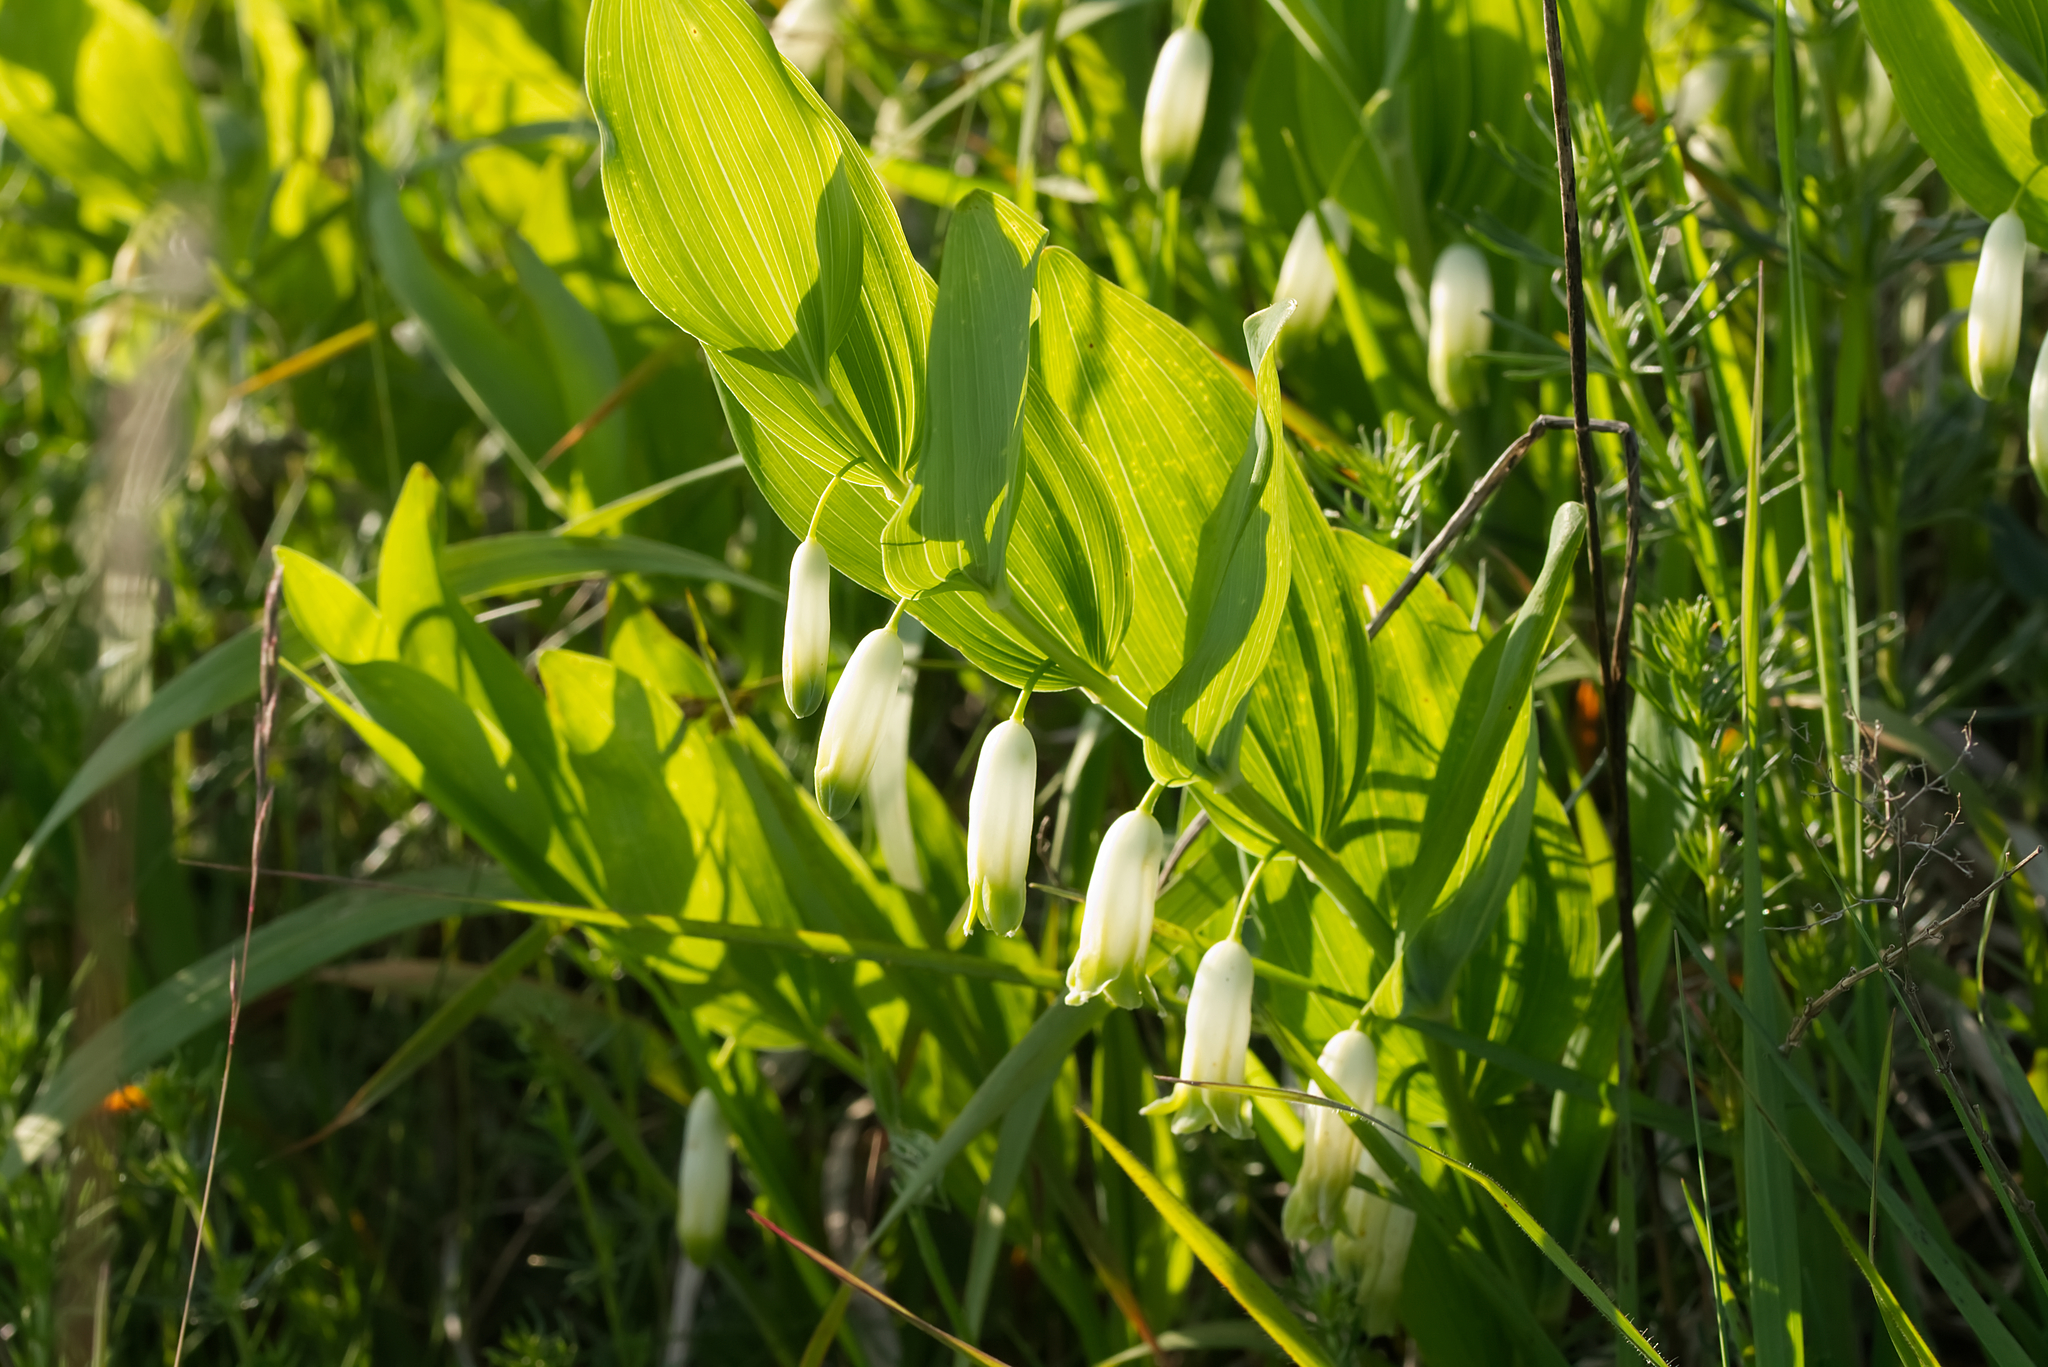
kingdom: Plantae
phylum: Tracheophyta
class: Liliopsida
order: Asparagales
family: Asparagaceae
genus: Polygonatum
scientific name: Polygonatum odoratum
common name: Angular solomon's-seal
